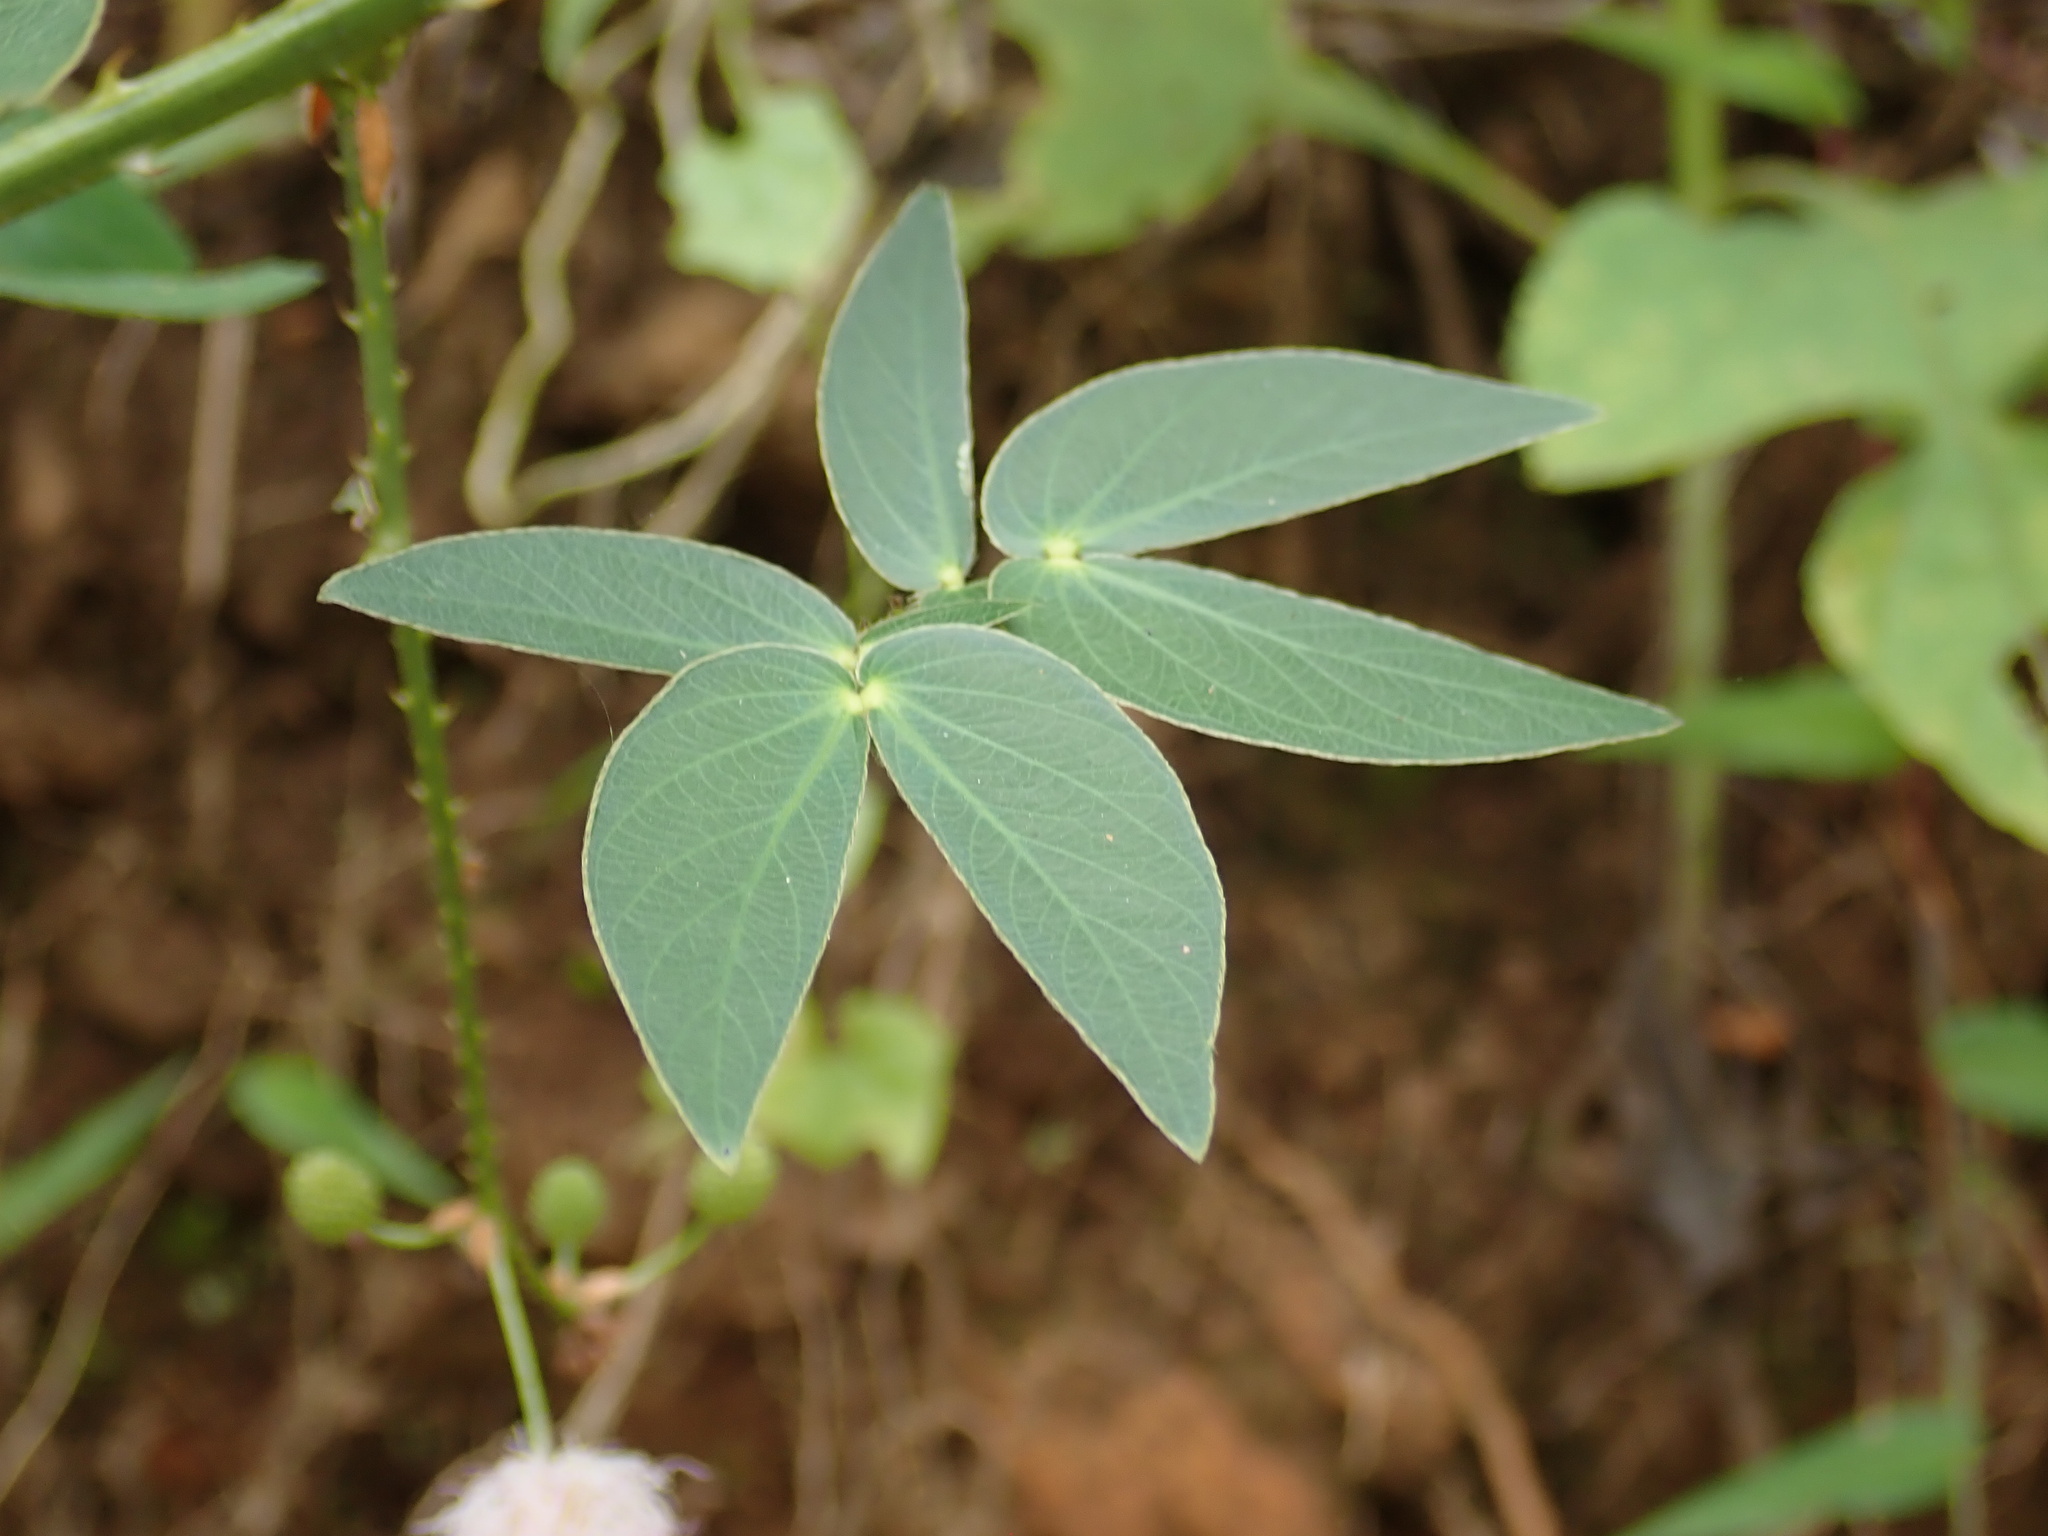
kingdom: Plantae
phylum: Tracheophyta
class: Magnoliopsida
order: Fabales
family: Fabaceae
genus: Mimosa
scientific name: Mimosa albida
